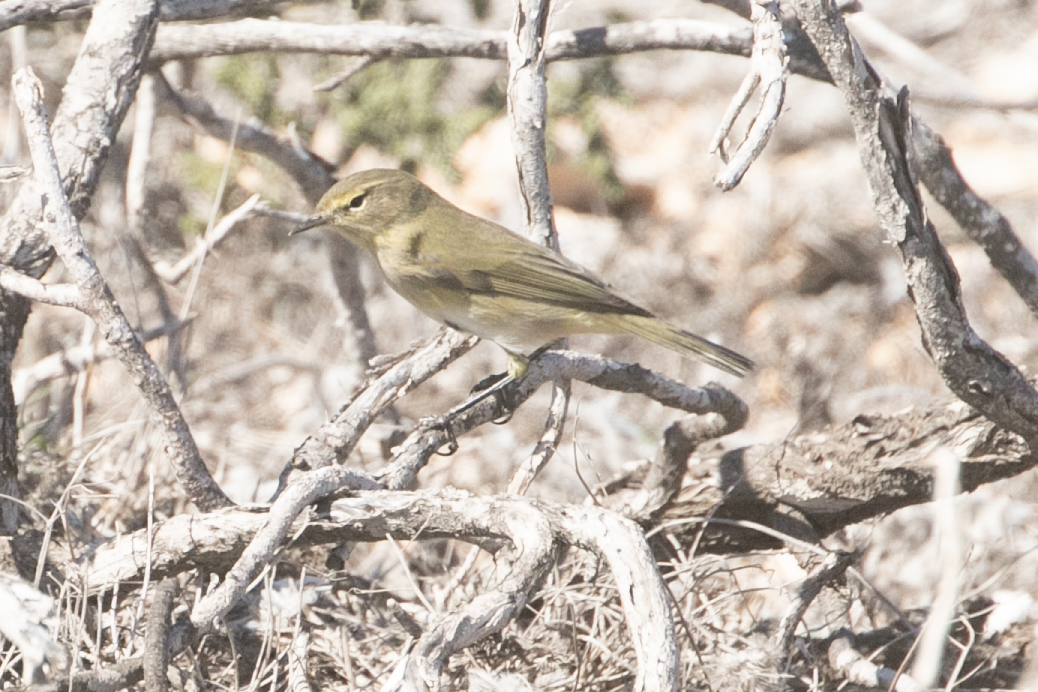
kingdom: Animalia
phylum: Chordata
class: Aves
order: Passeriformes
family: Phylloscopidae
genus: Phylloscopus
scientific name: Phylloscopus collybita
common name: Common chiffchaff
